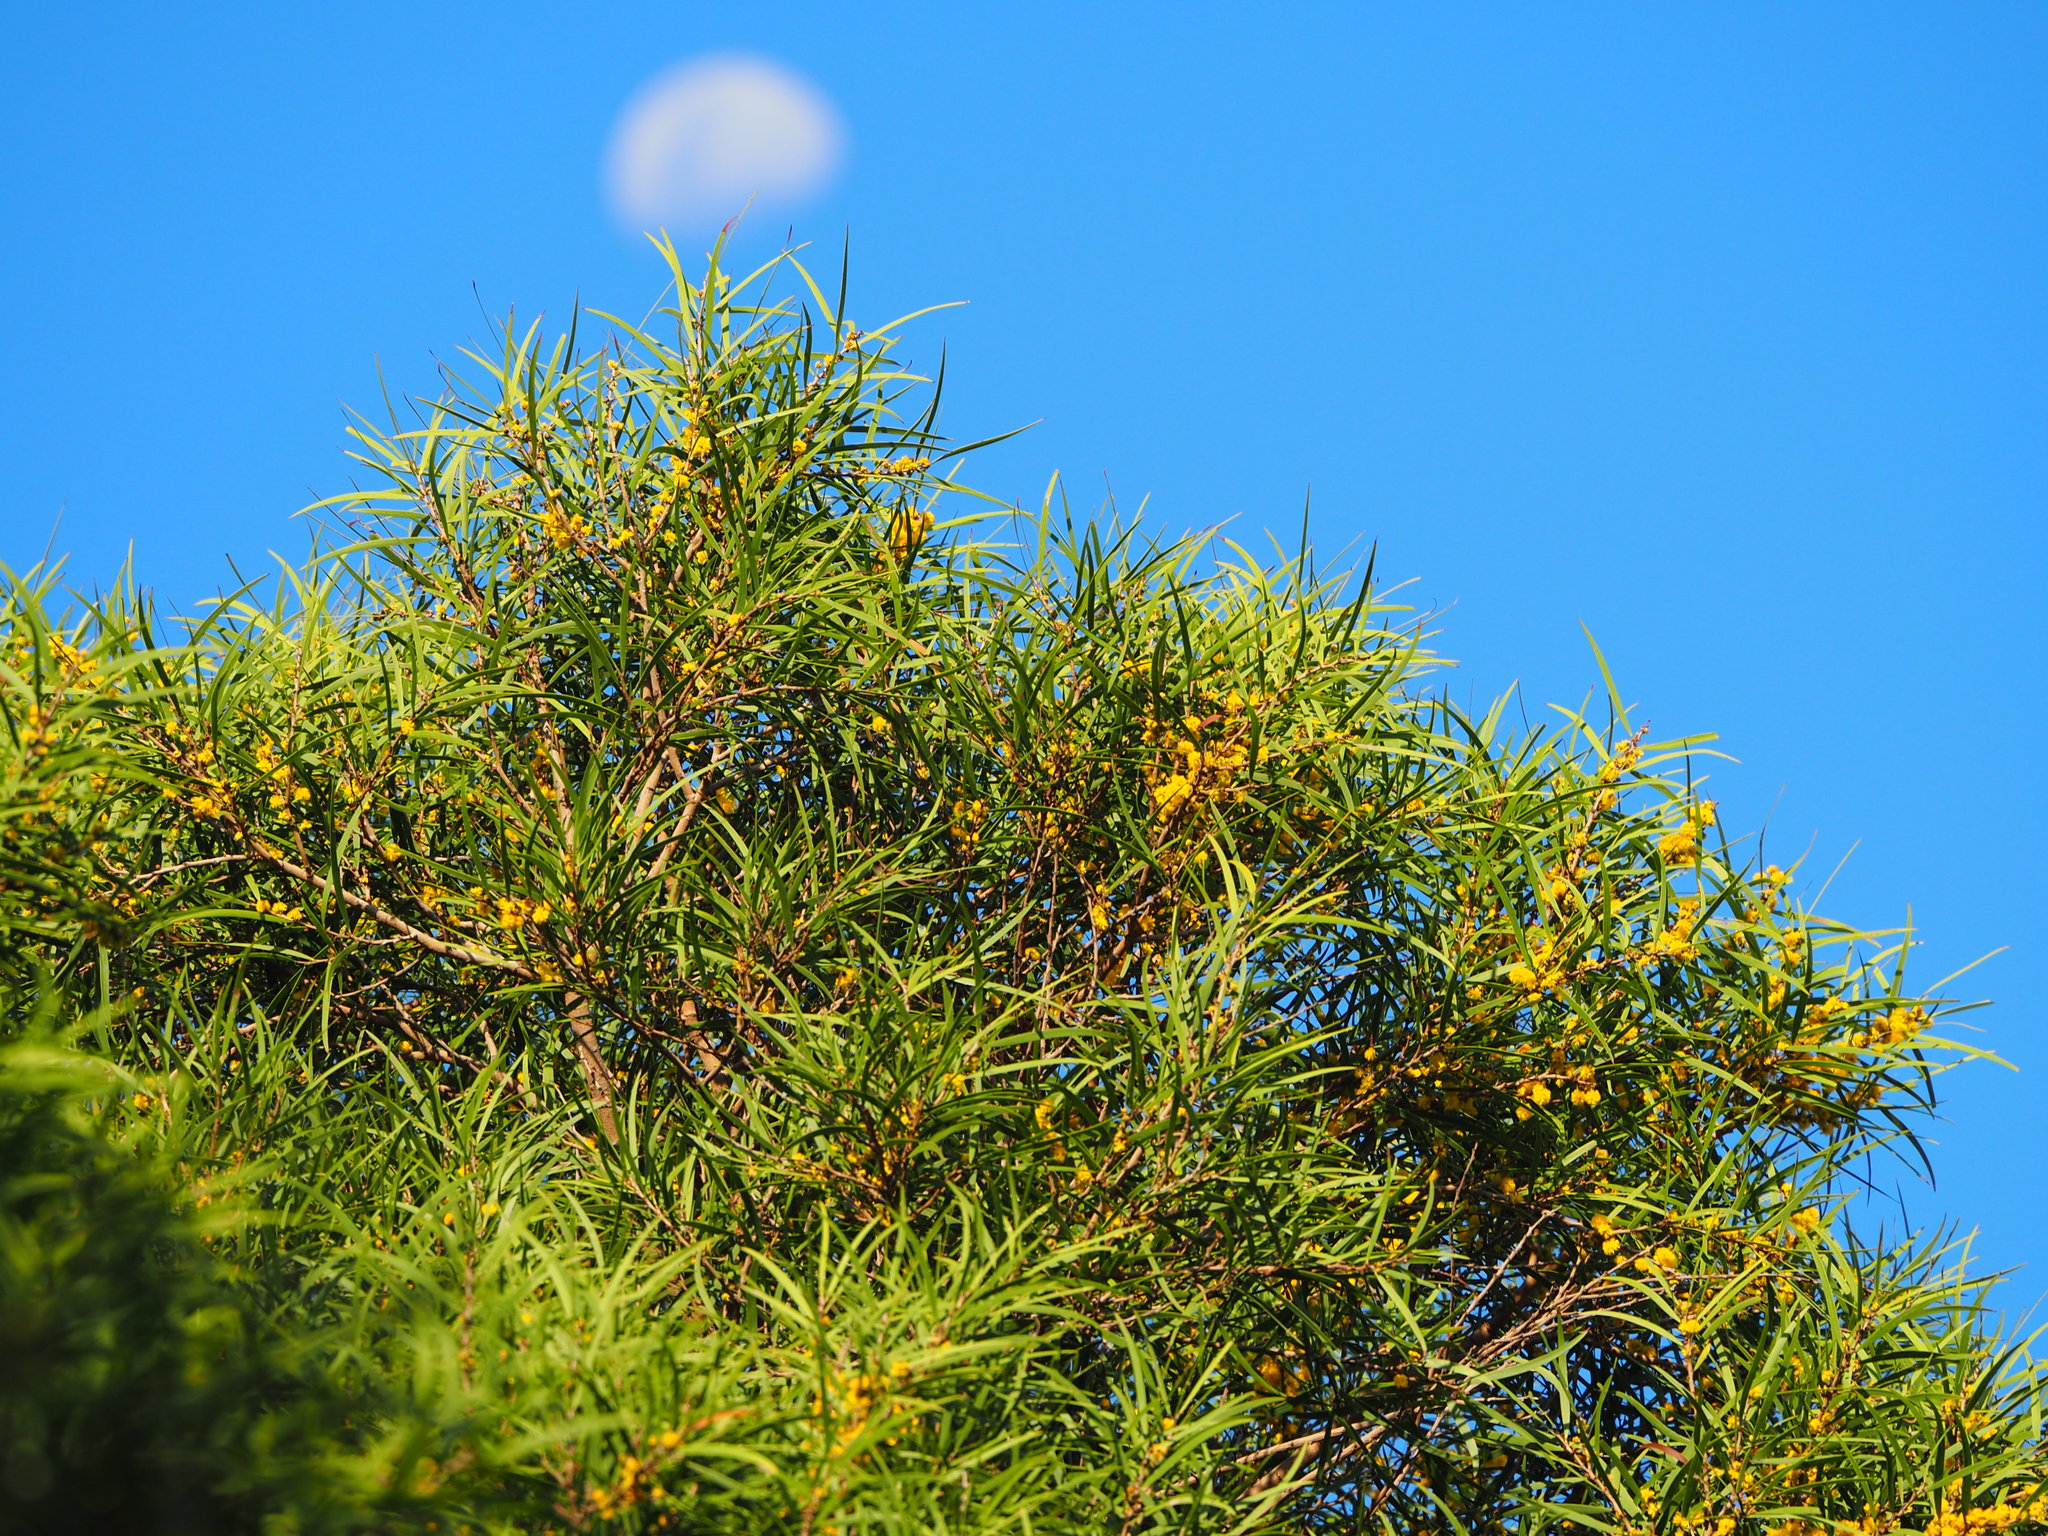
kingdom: Plantae
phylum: Tracheophyta
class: Magnoliopsida
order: Fabales
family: Fabaceae
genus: Acacia
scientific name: Acacia confusa
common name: Formosan koa
